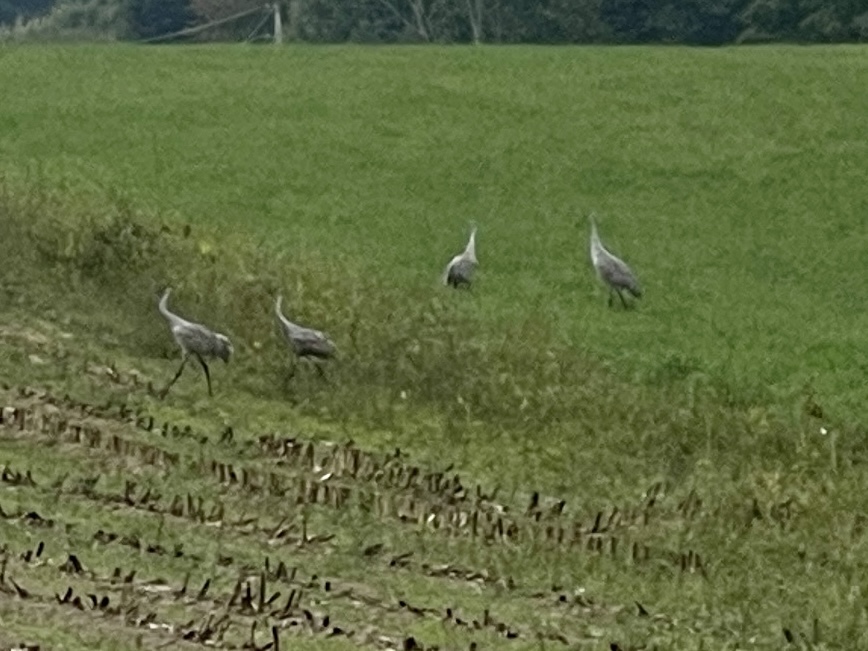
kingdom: Animalia
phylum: Chordata
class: Aves
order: Gruiformes
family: Gruidae
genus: Grus
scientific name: Grus canadensis
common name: Sandhill crane
